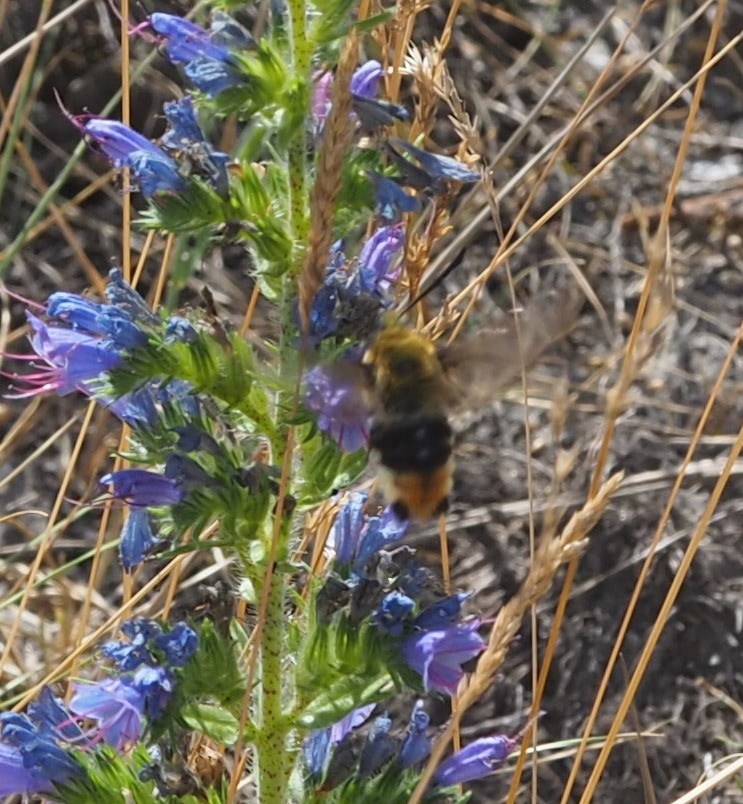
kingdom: Animalia
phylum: Arthropoda
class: Insecta
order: Lepidoptera
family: Sphingidae
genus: Hemaris
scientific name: Hemaris tityus
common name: Narrow-bordered bee hawk-moth
